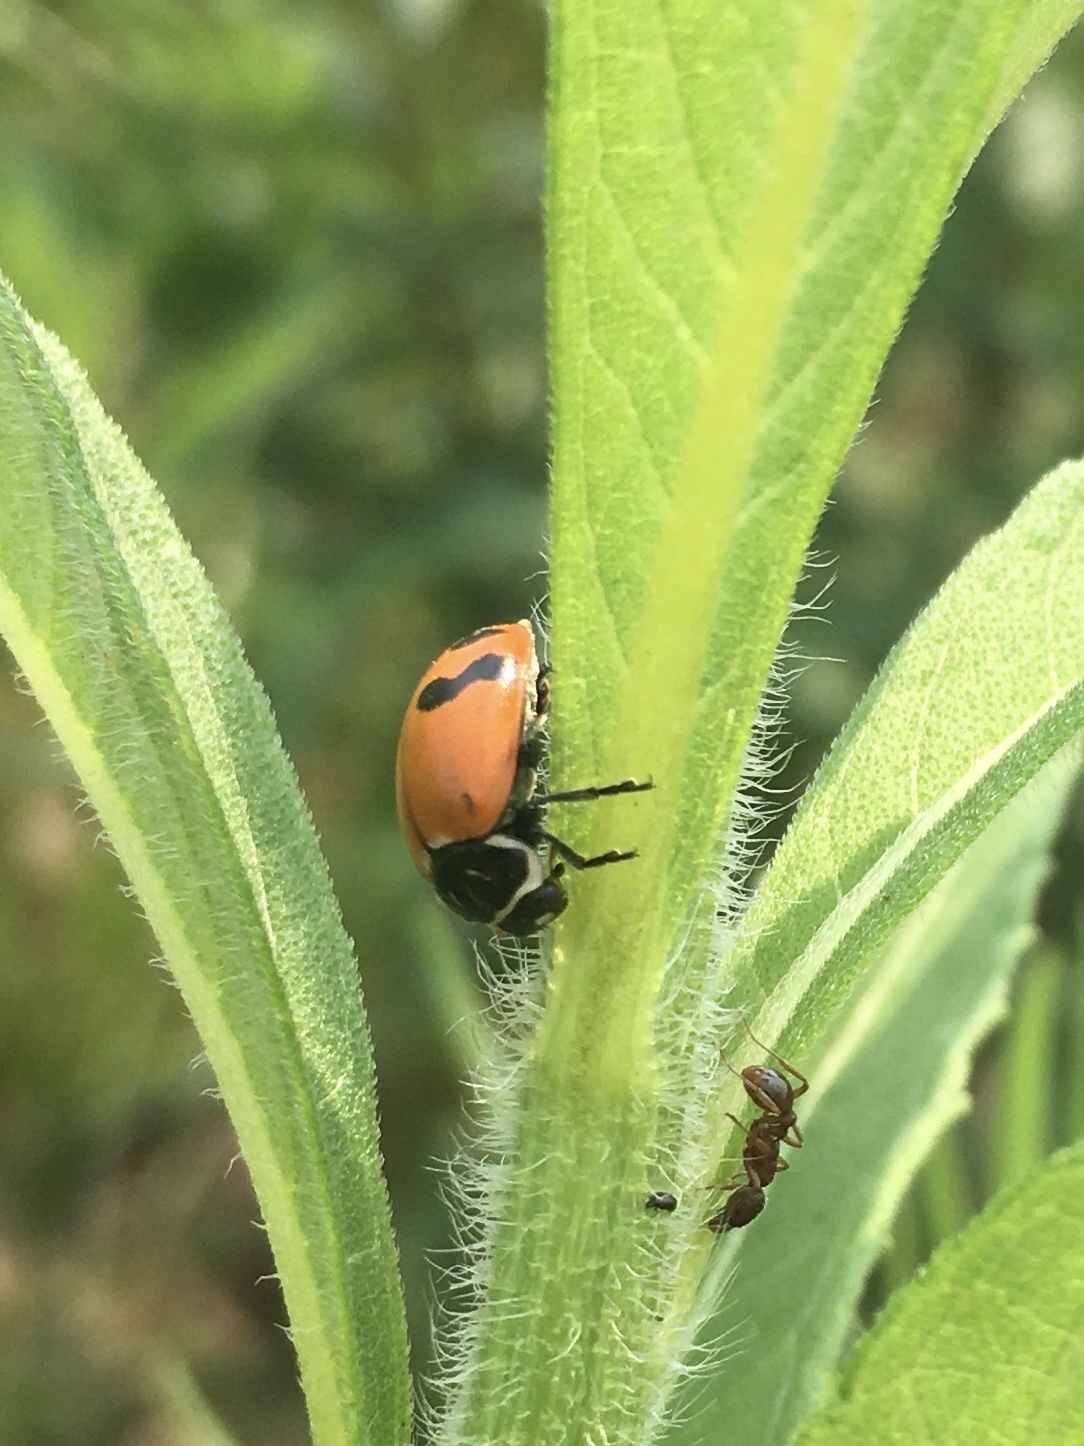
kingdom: Animalia
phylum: Arthropoda
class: Insecta
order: Coleoptera
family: Coccinellidae
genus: Hippodamia
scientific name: Hippodamia glacialis
